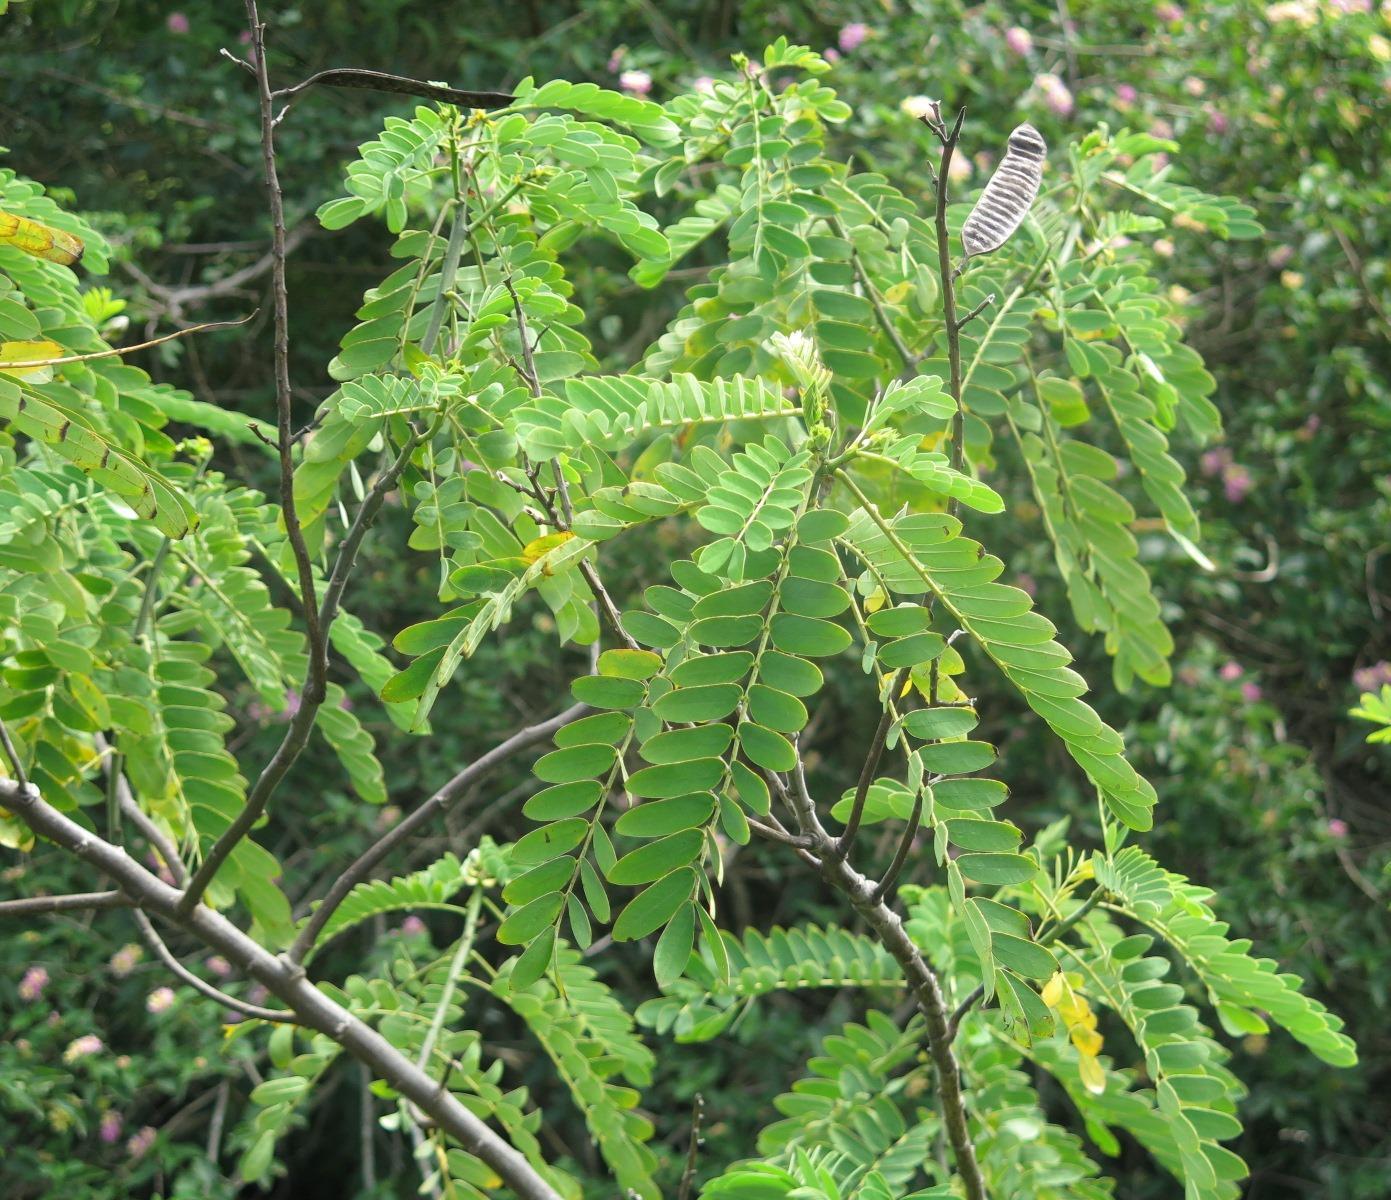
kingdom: Plantae
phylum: Tracheophyta
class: Magnoliopsida
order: Fabales
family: Fabaceae
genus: Senna
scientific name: Senna didymobotrya
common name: African senna
